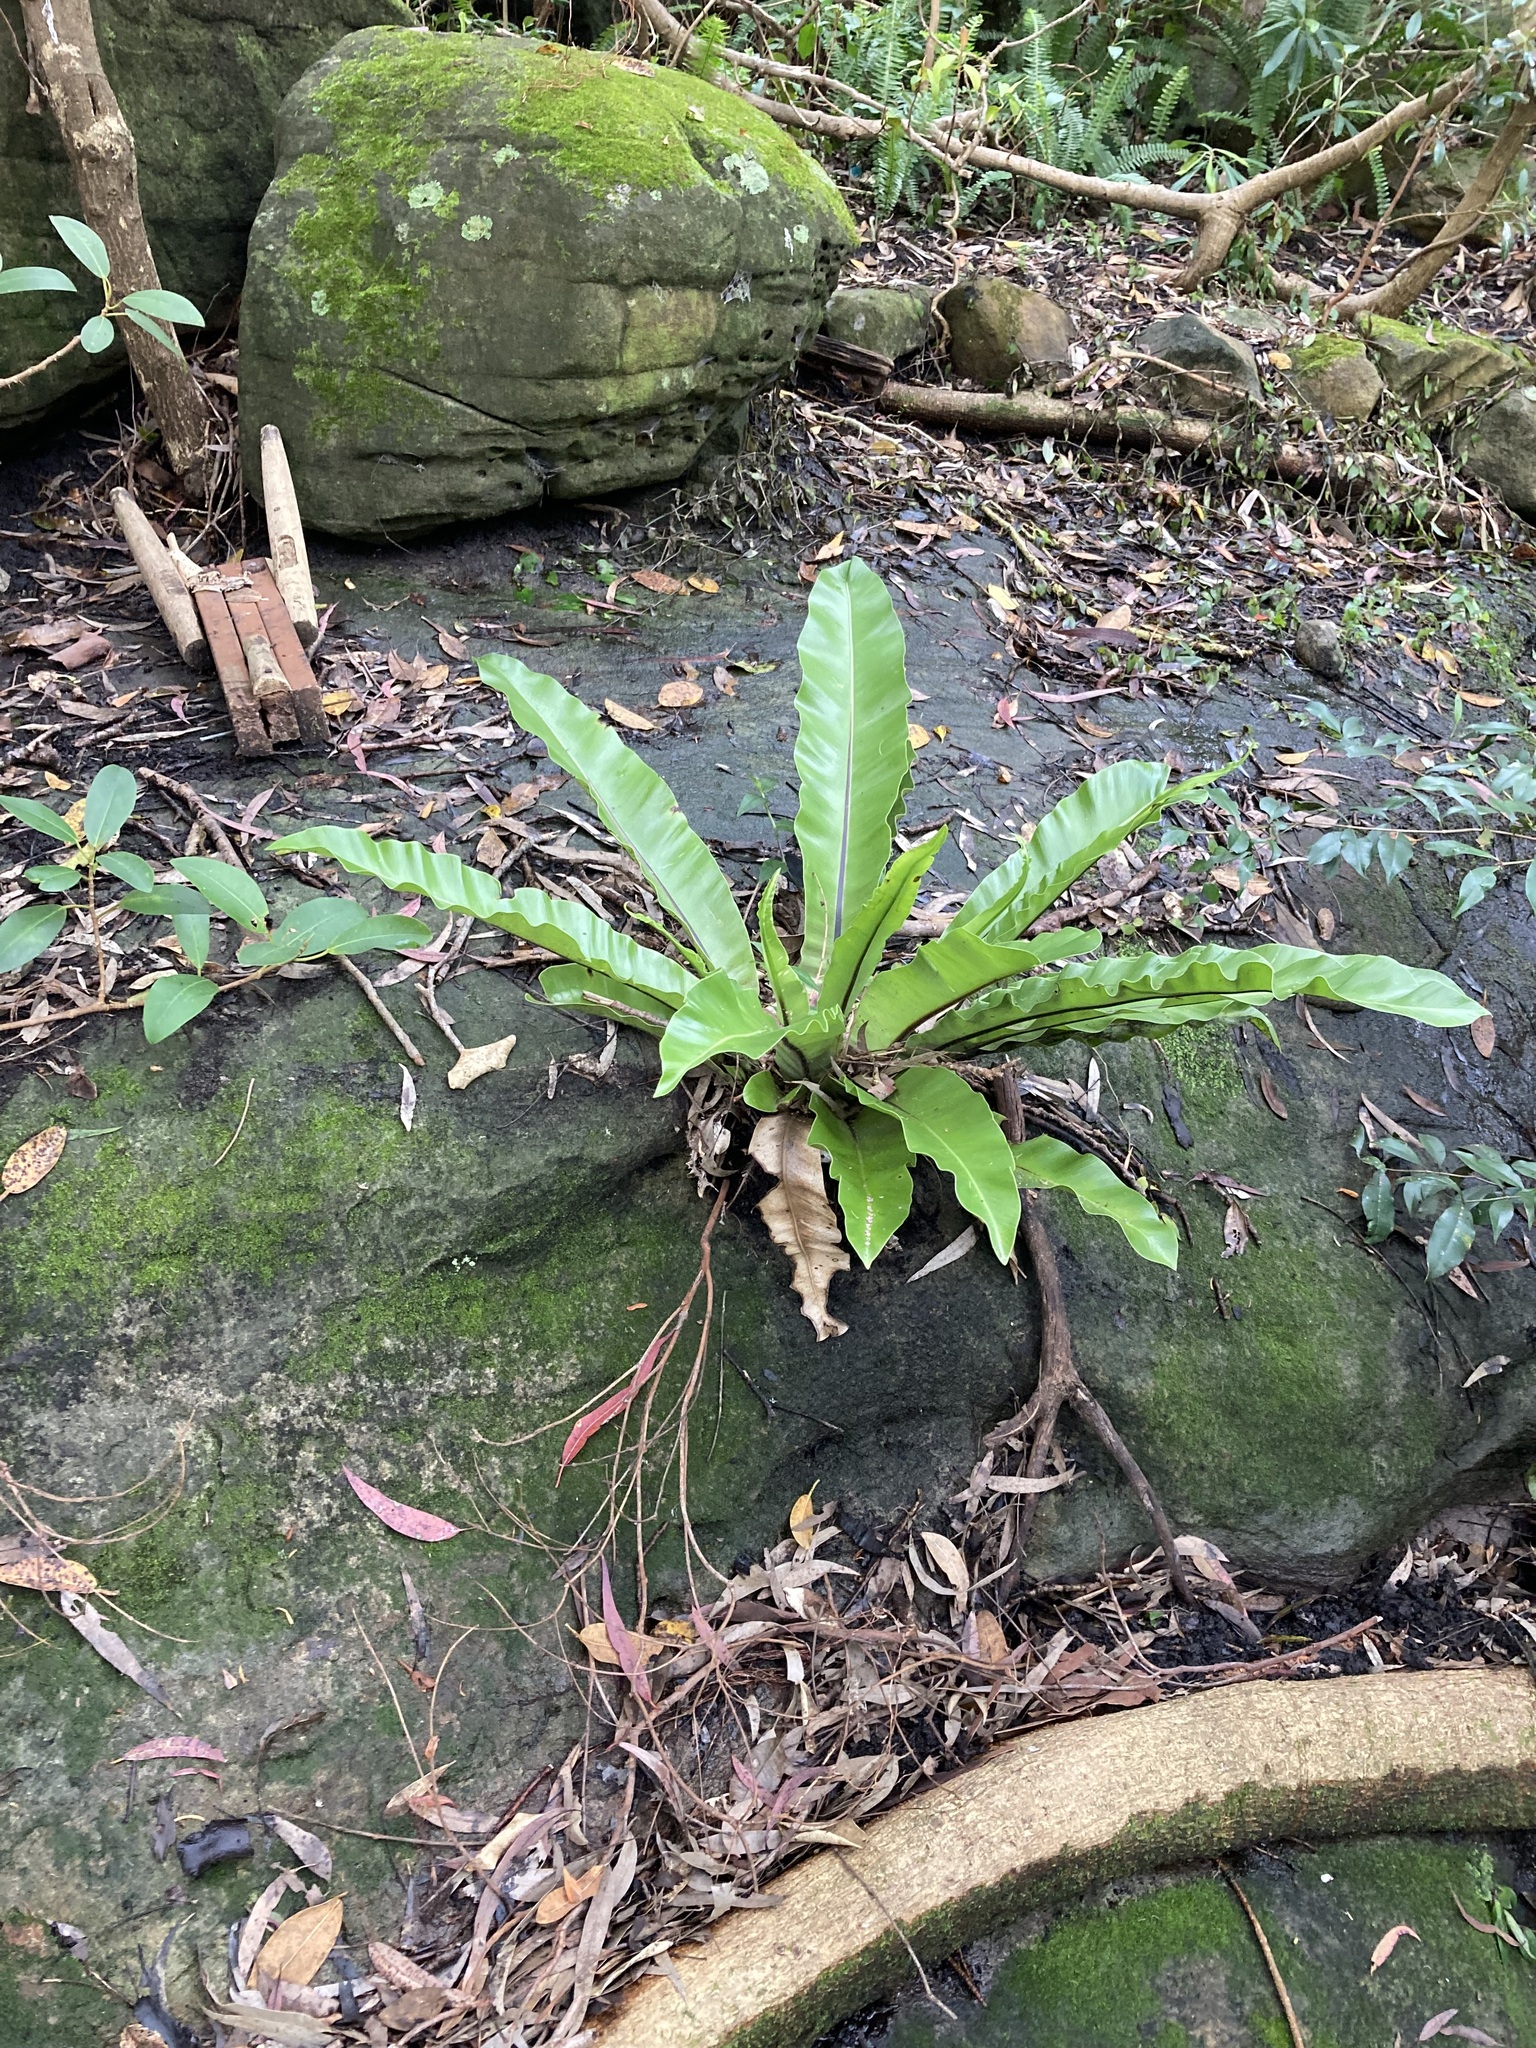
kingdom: Plantae
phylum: Tracheophyta
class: Polypodiopsida
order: Polypodiales
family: Aspleniaceae
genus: Asplenium
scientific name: Asplenium australasicum
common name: Bird's-nest fern
